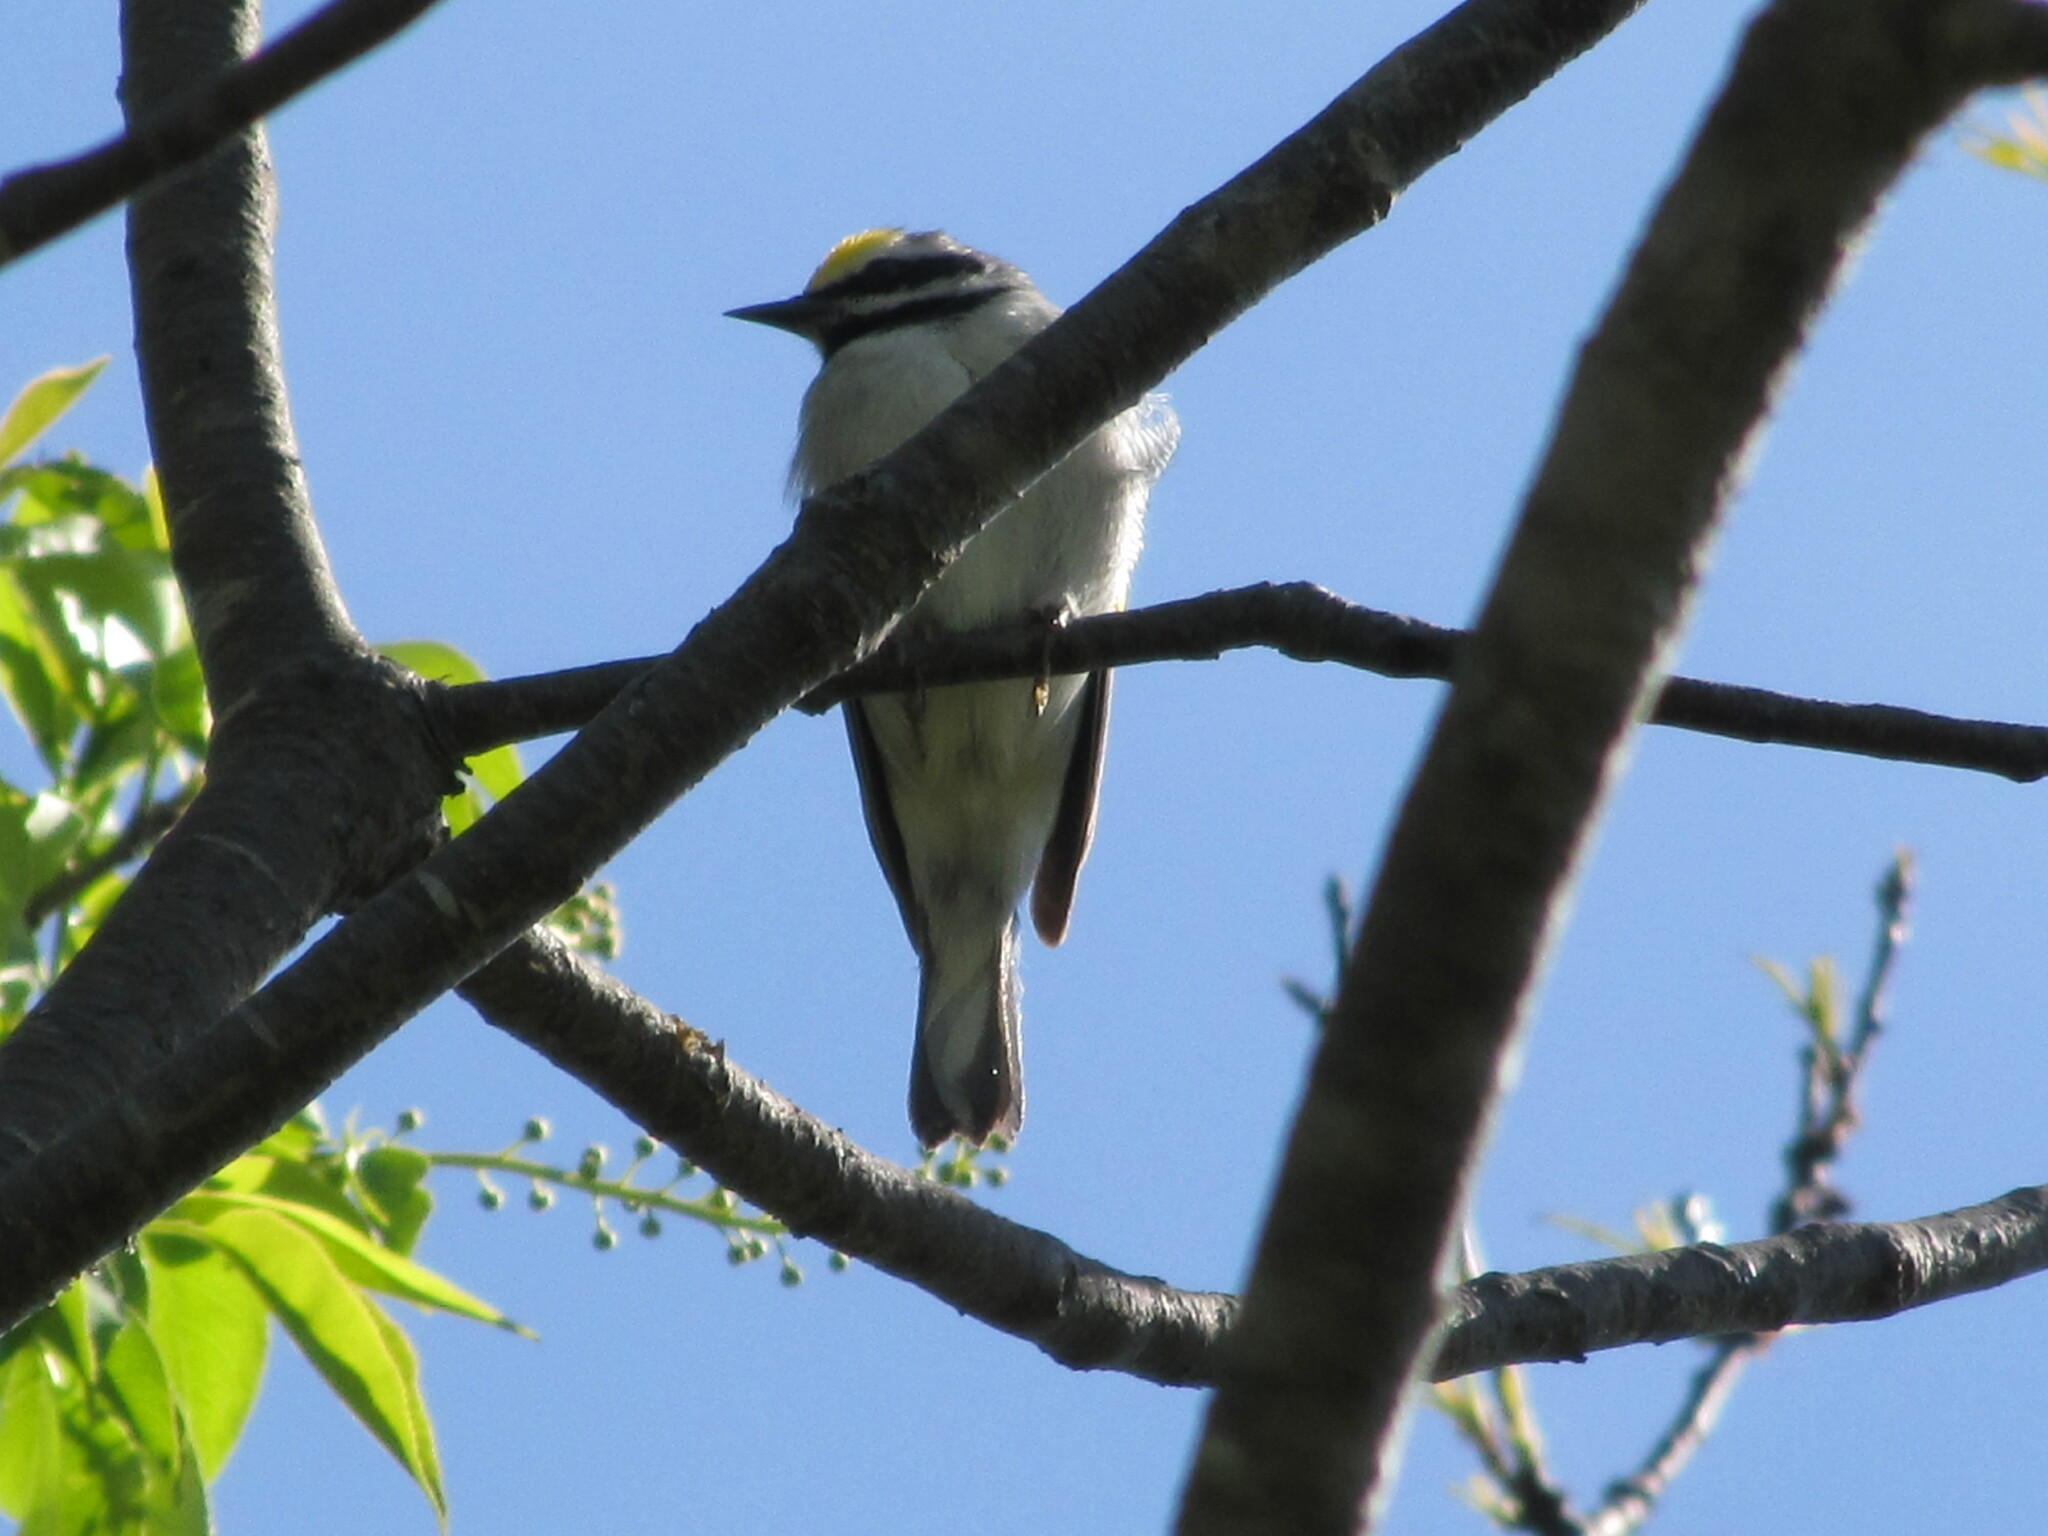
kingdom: Animalia
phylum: Chordata
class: Aves
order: Passeriformes
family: Parulidae
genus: Vermivora
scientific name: Vermivora chrysoptera
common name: Golden-winged warbler
